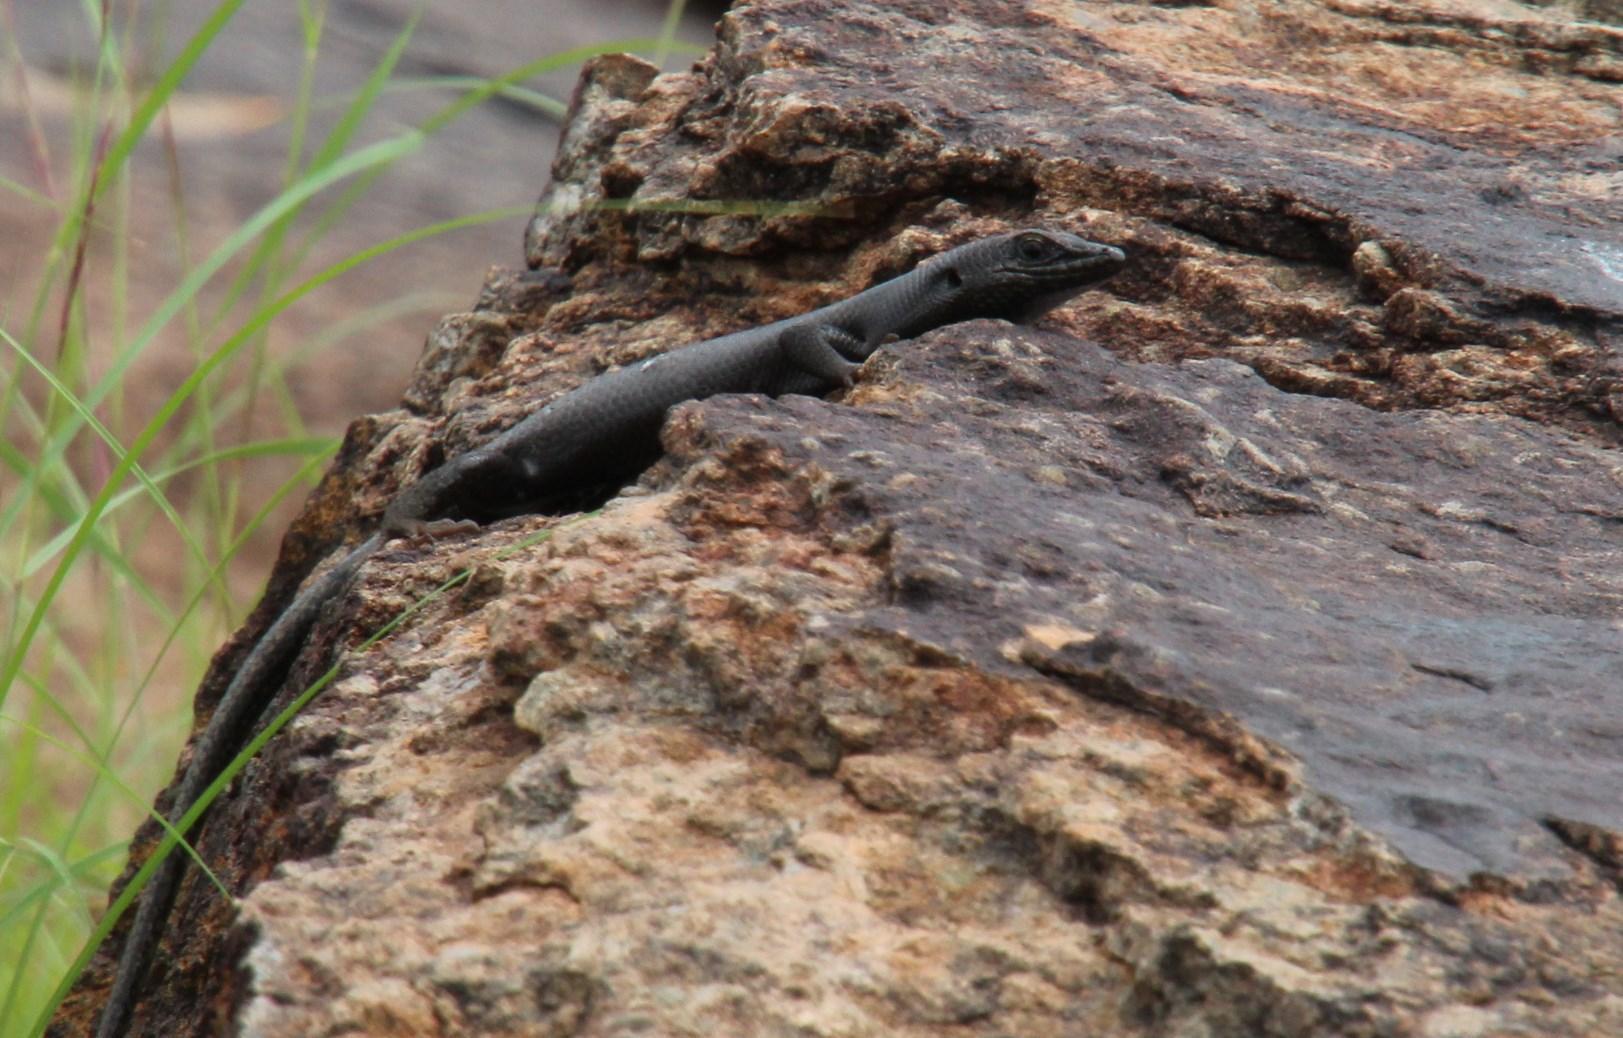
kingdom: Animalia
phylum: Chordata
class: Squamata
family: Scincidae
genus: Trachylepis
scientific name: Trachylepis sulcata
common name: Western rock skink
